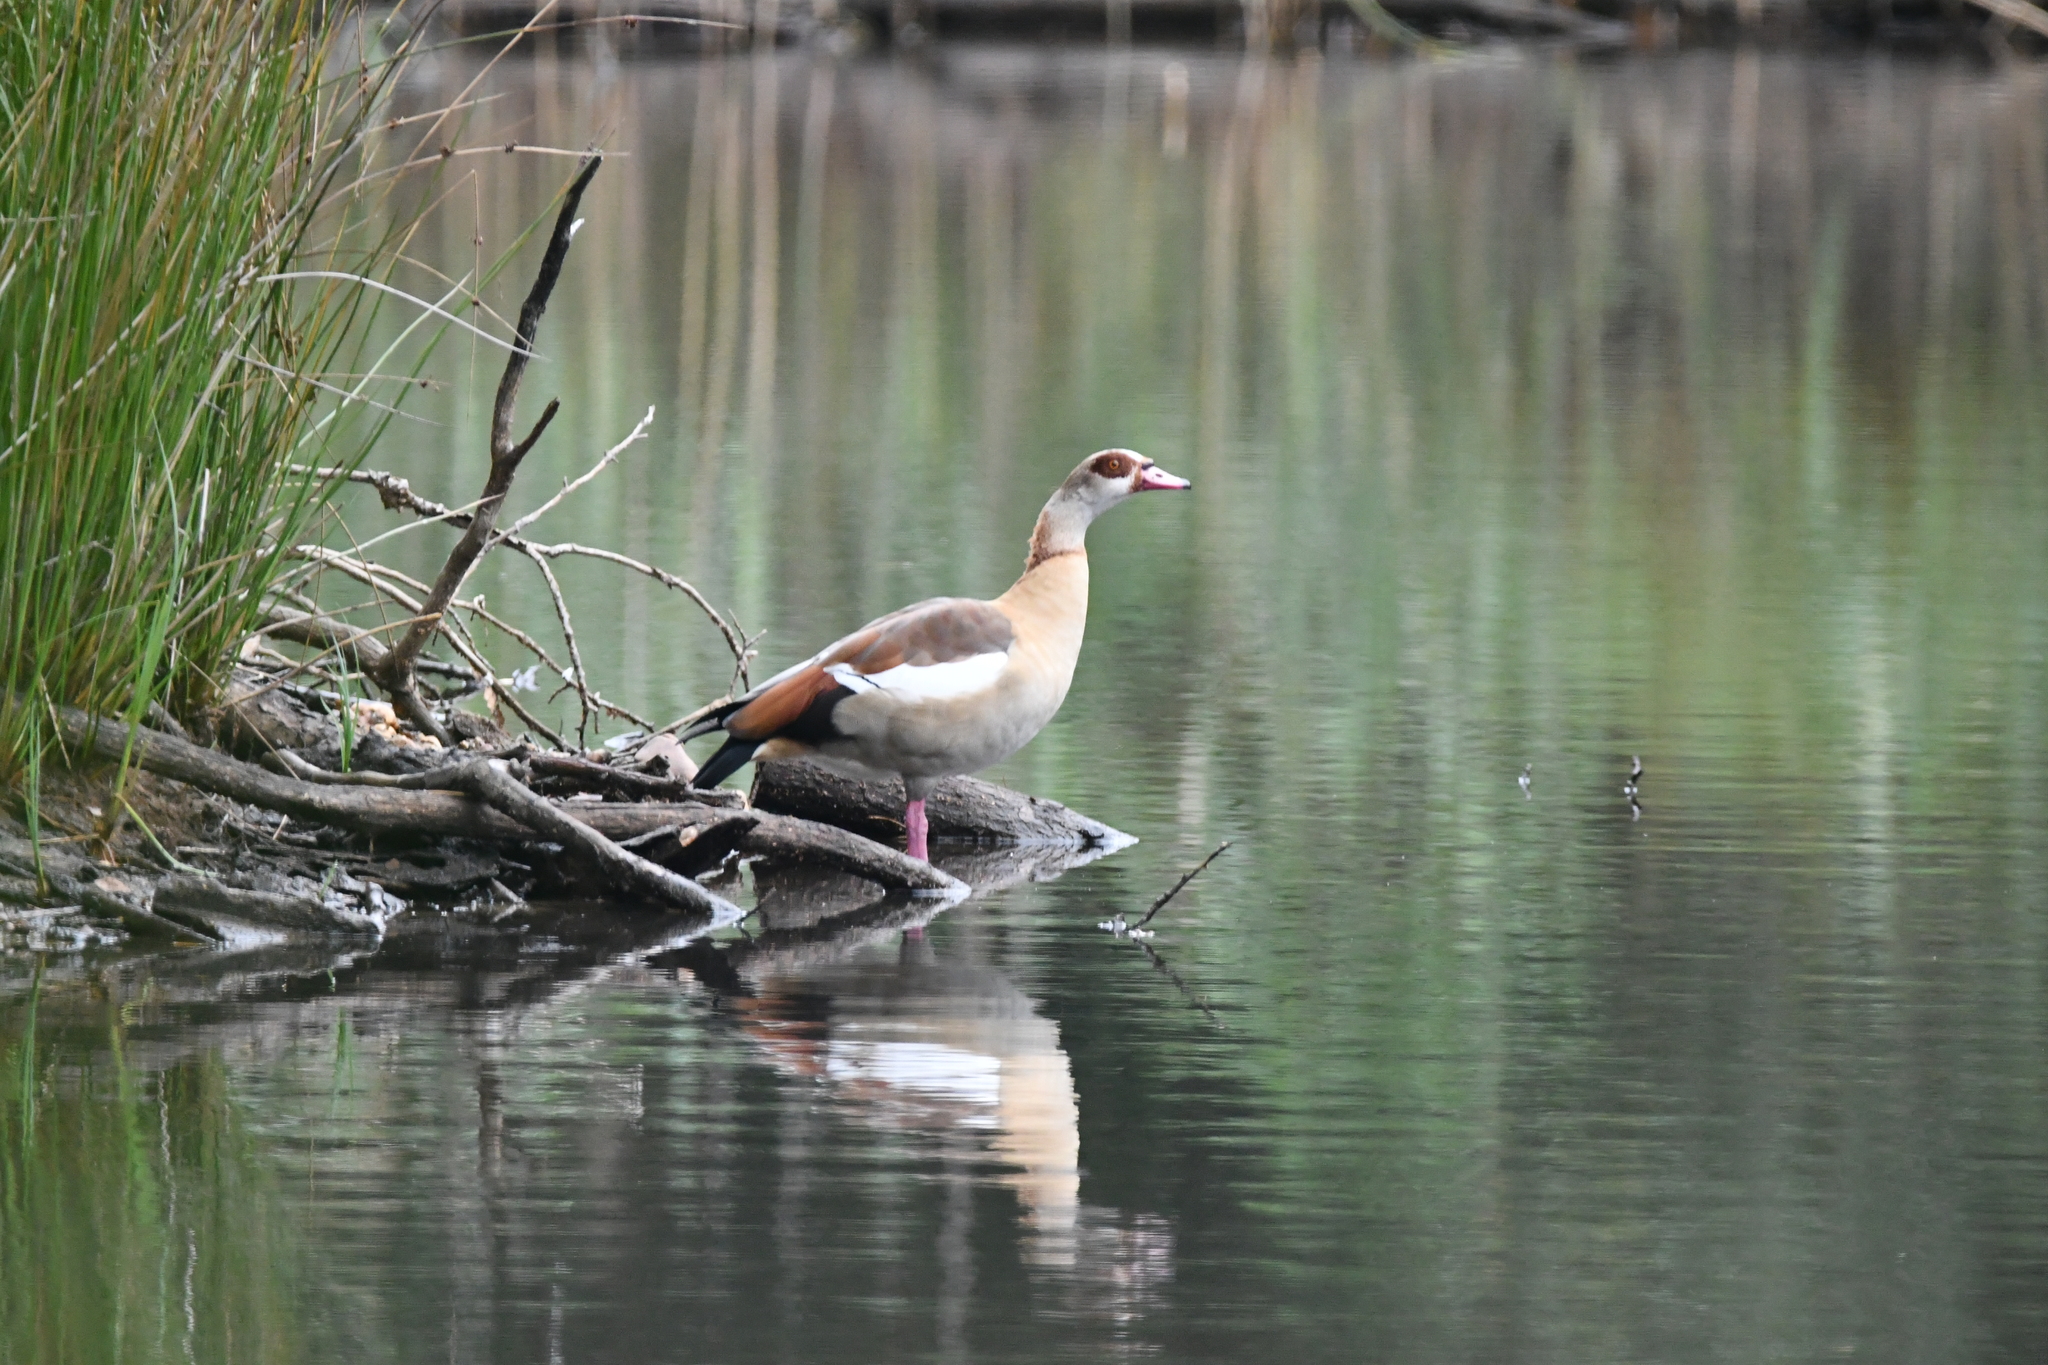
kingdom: Animalia
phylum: Chordata
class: Aves
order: Anseriformes
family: Anatidae
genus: Alopochen
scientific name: Alopochen aegyptiaca
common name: Egyptian goose
